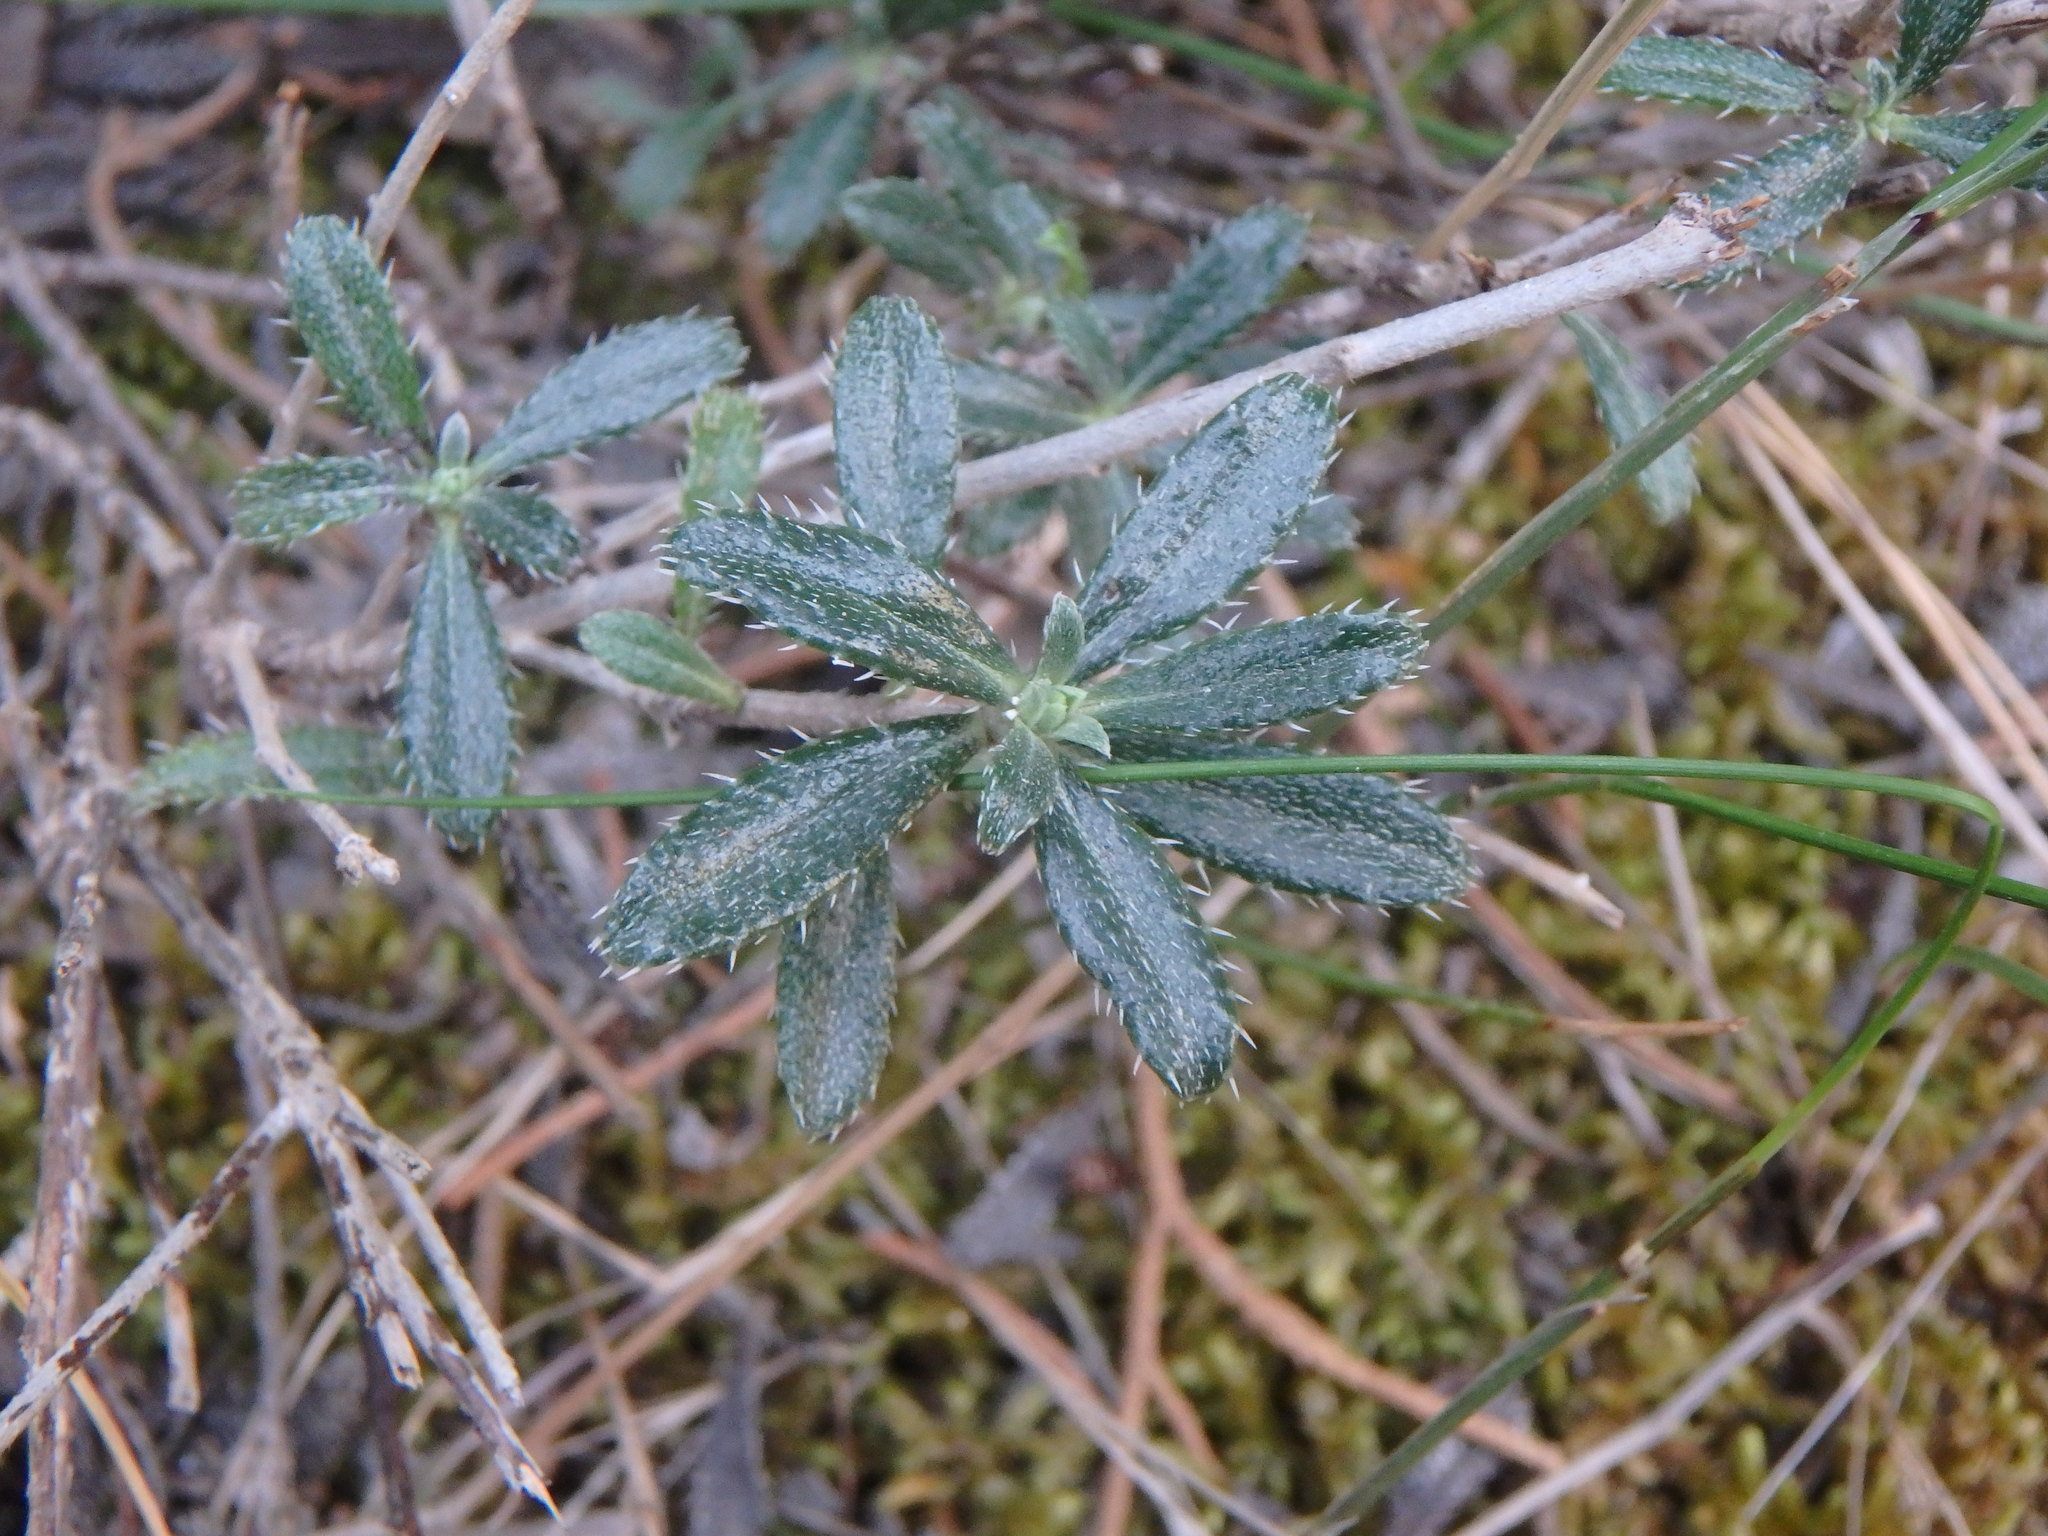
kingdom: Plantae
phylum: Tracheophyta
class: Magnoliopsida
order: Boraginales
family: Boraginaceae
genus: Lithodora
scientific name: Lithodora hispidula
